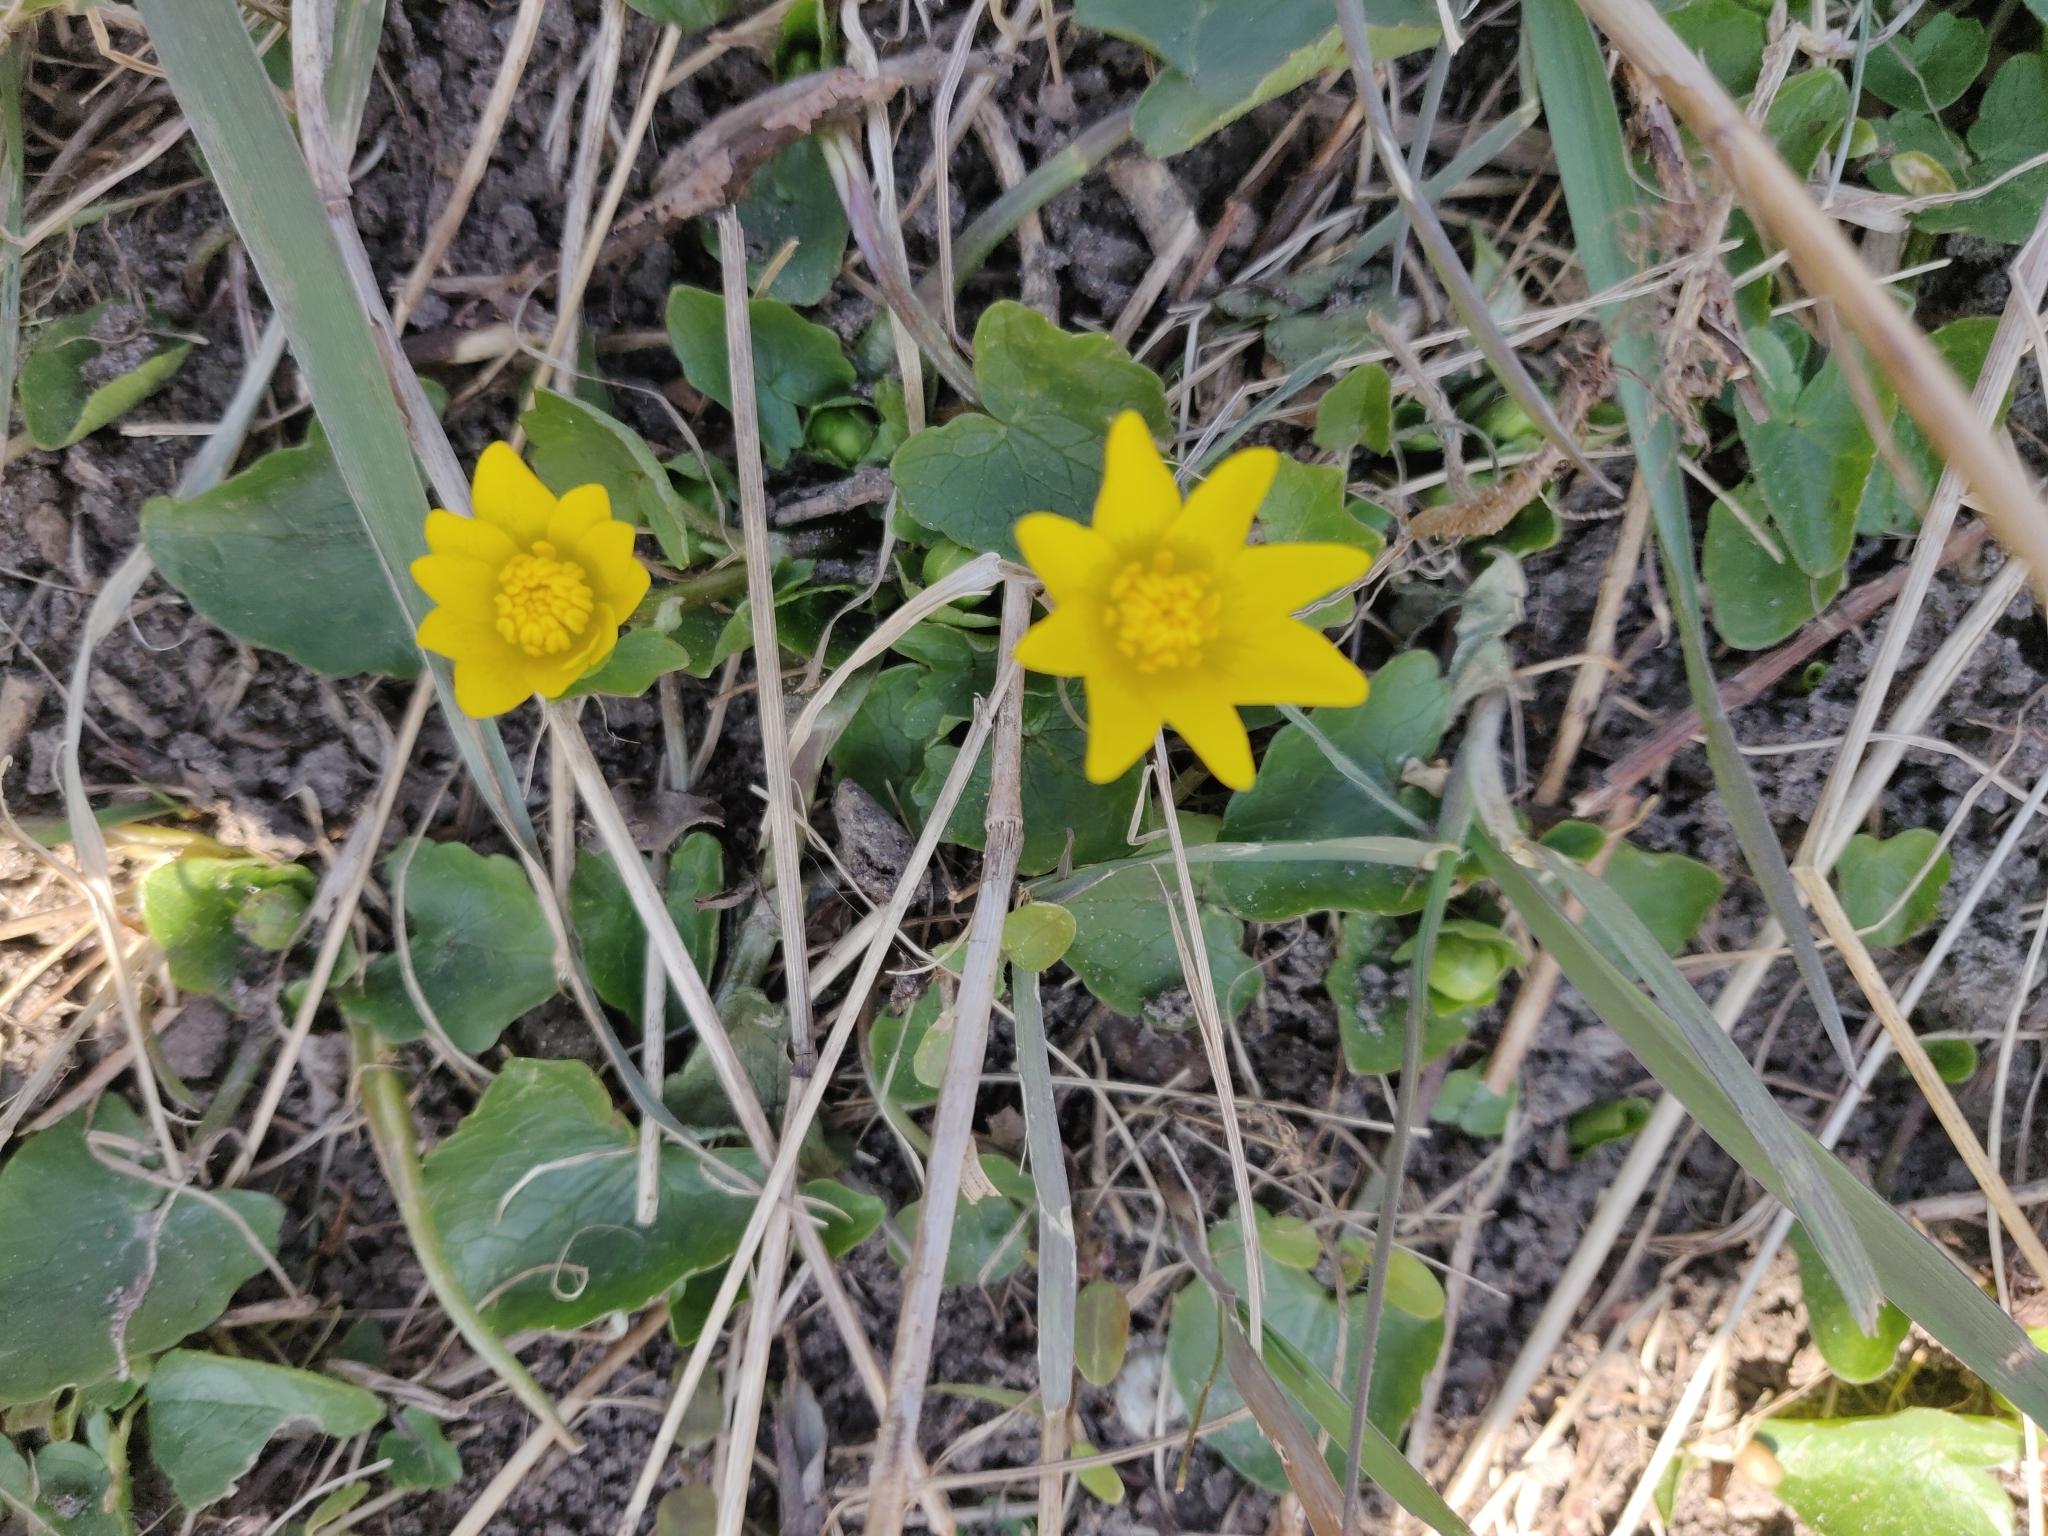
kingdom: Plantae
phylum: Tracheophyta
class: Magnoliopsida
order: Ranunculales
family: Ranunculaceae
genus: Ficaria
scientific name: Ficaria verna
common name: Lesser celandine
